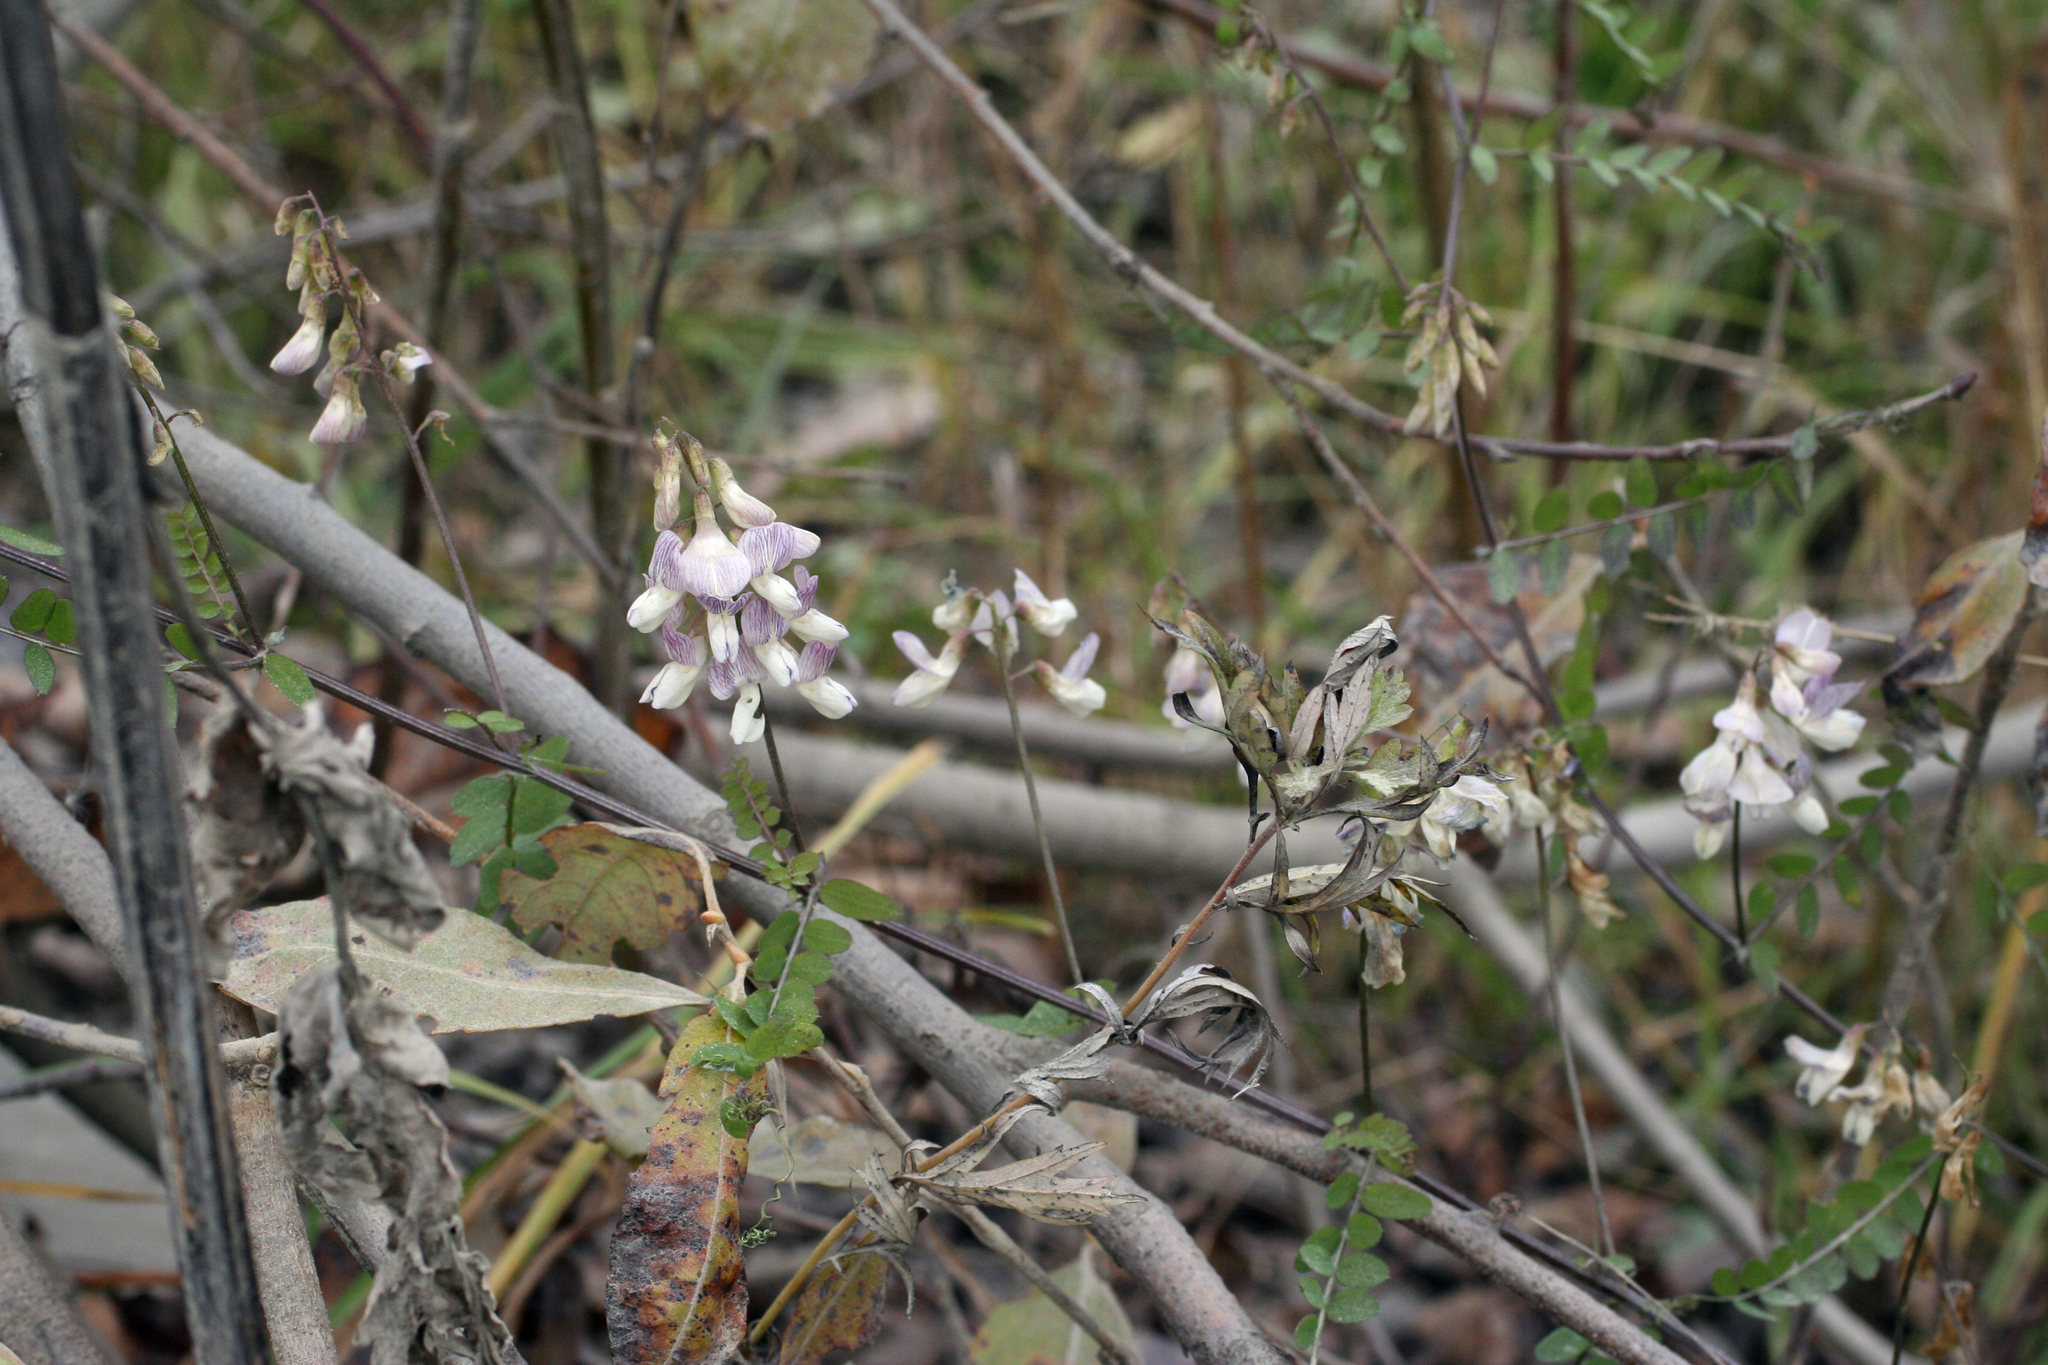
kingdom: Plantae
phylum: Tracheophyta
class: Magnoliopsida
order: Fabales
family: Fabaceae
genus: Vicia
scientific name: Vicia sylvatica
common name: Wood vetch
